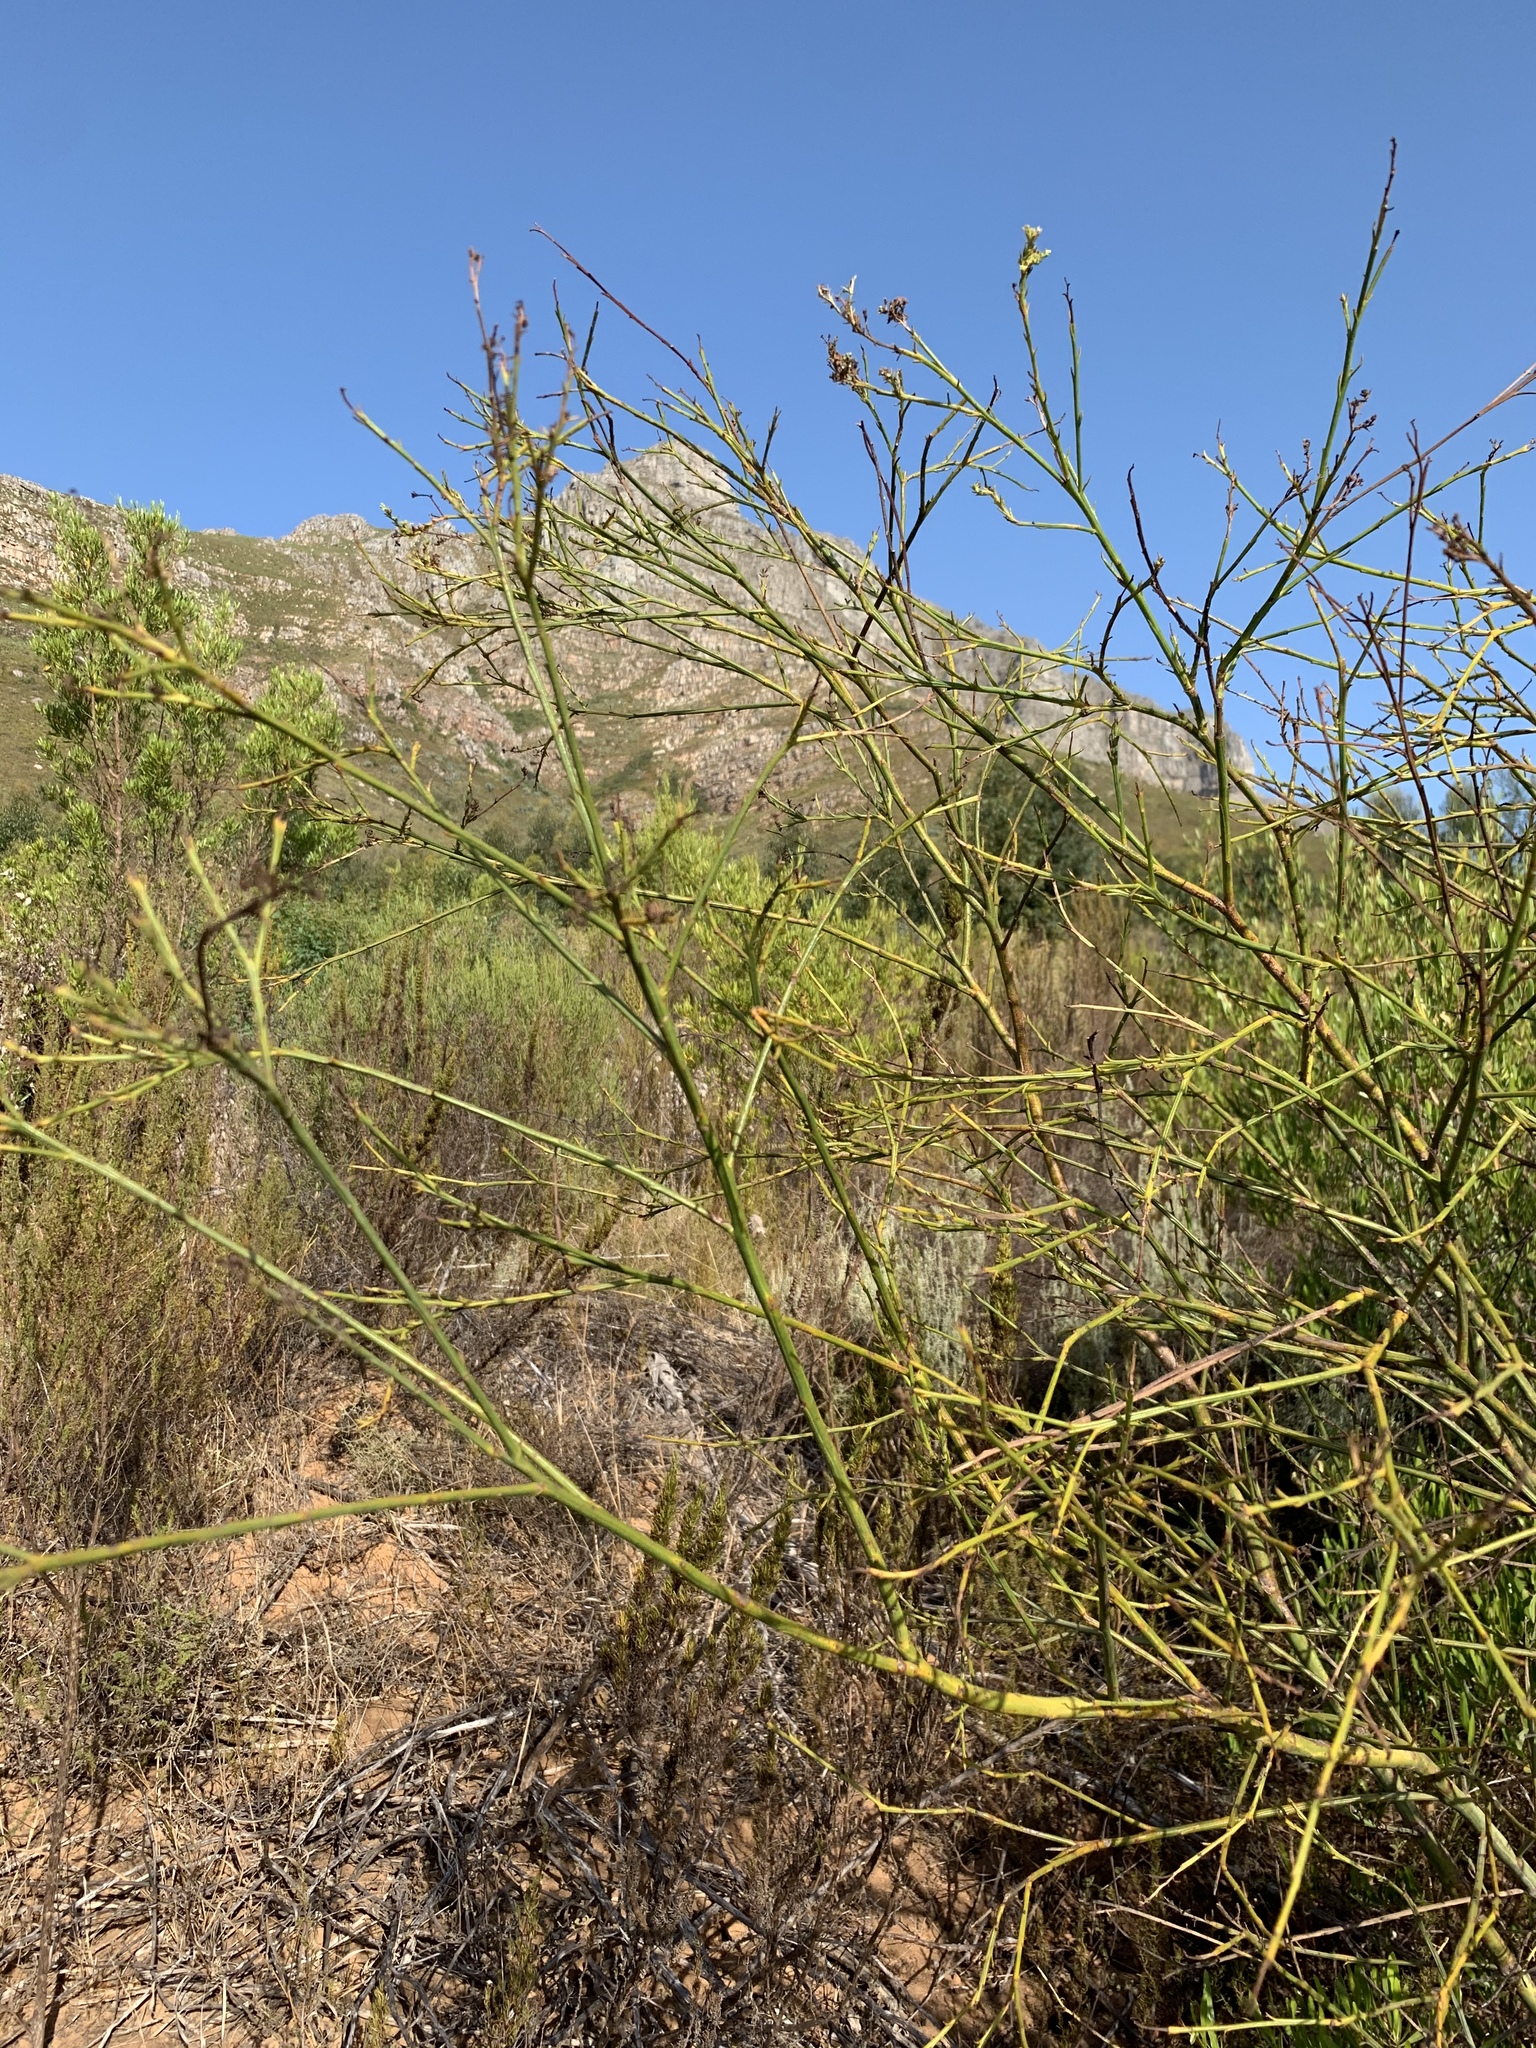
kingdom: Plantae
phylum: Tracheophyta
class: Magnoliopsida
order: Santalales
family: Thesiaceae
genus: Thesium
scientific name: Thesium strictum
